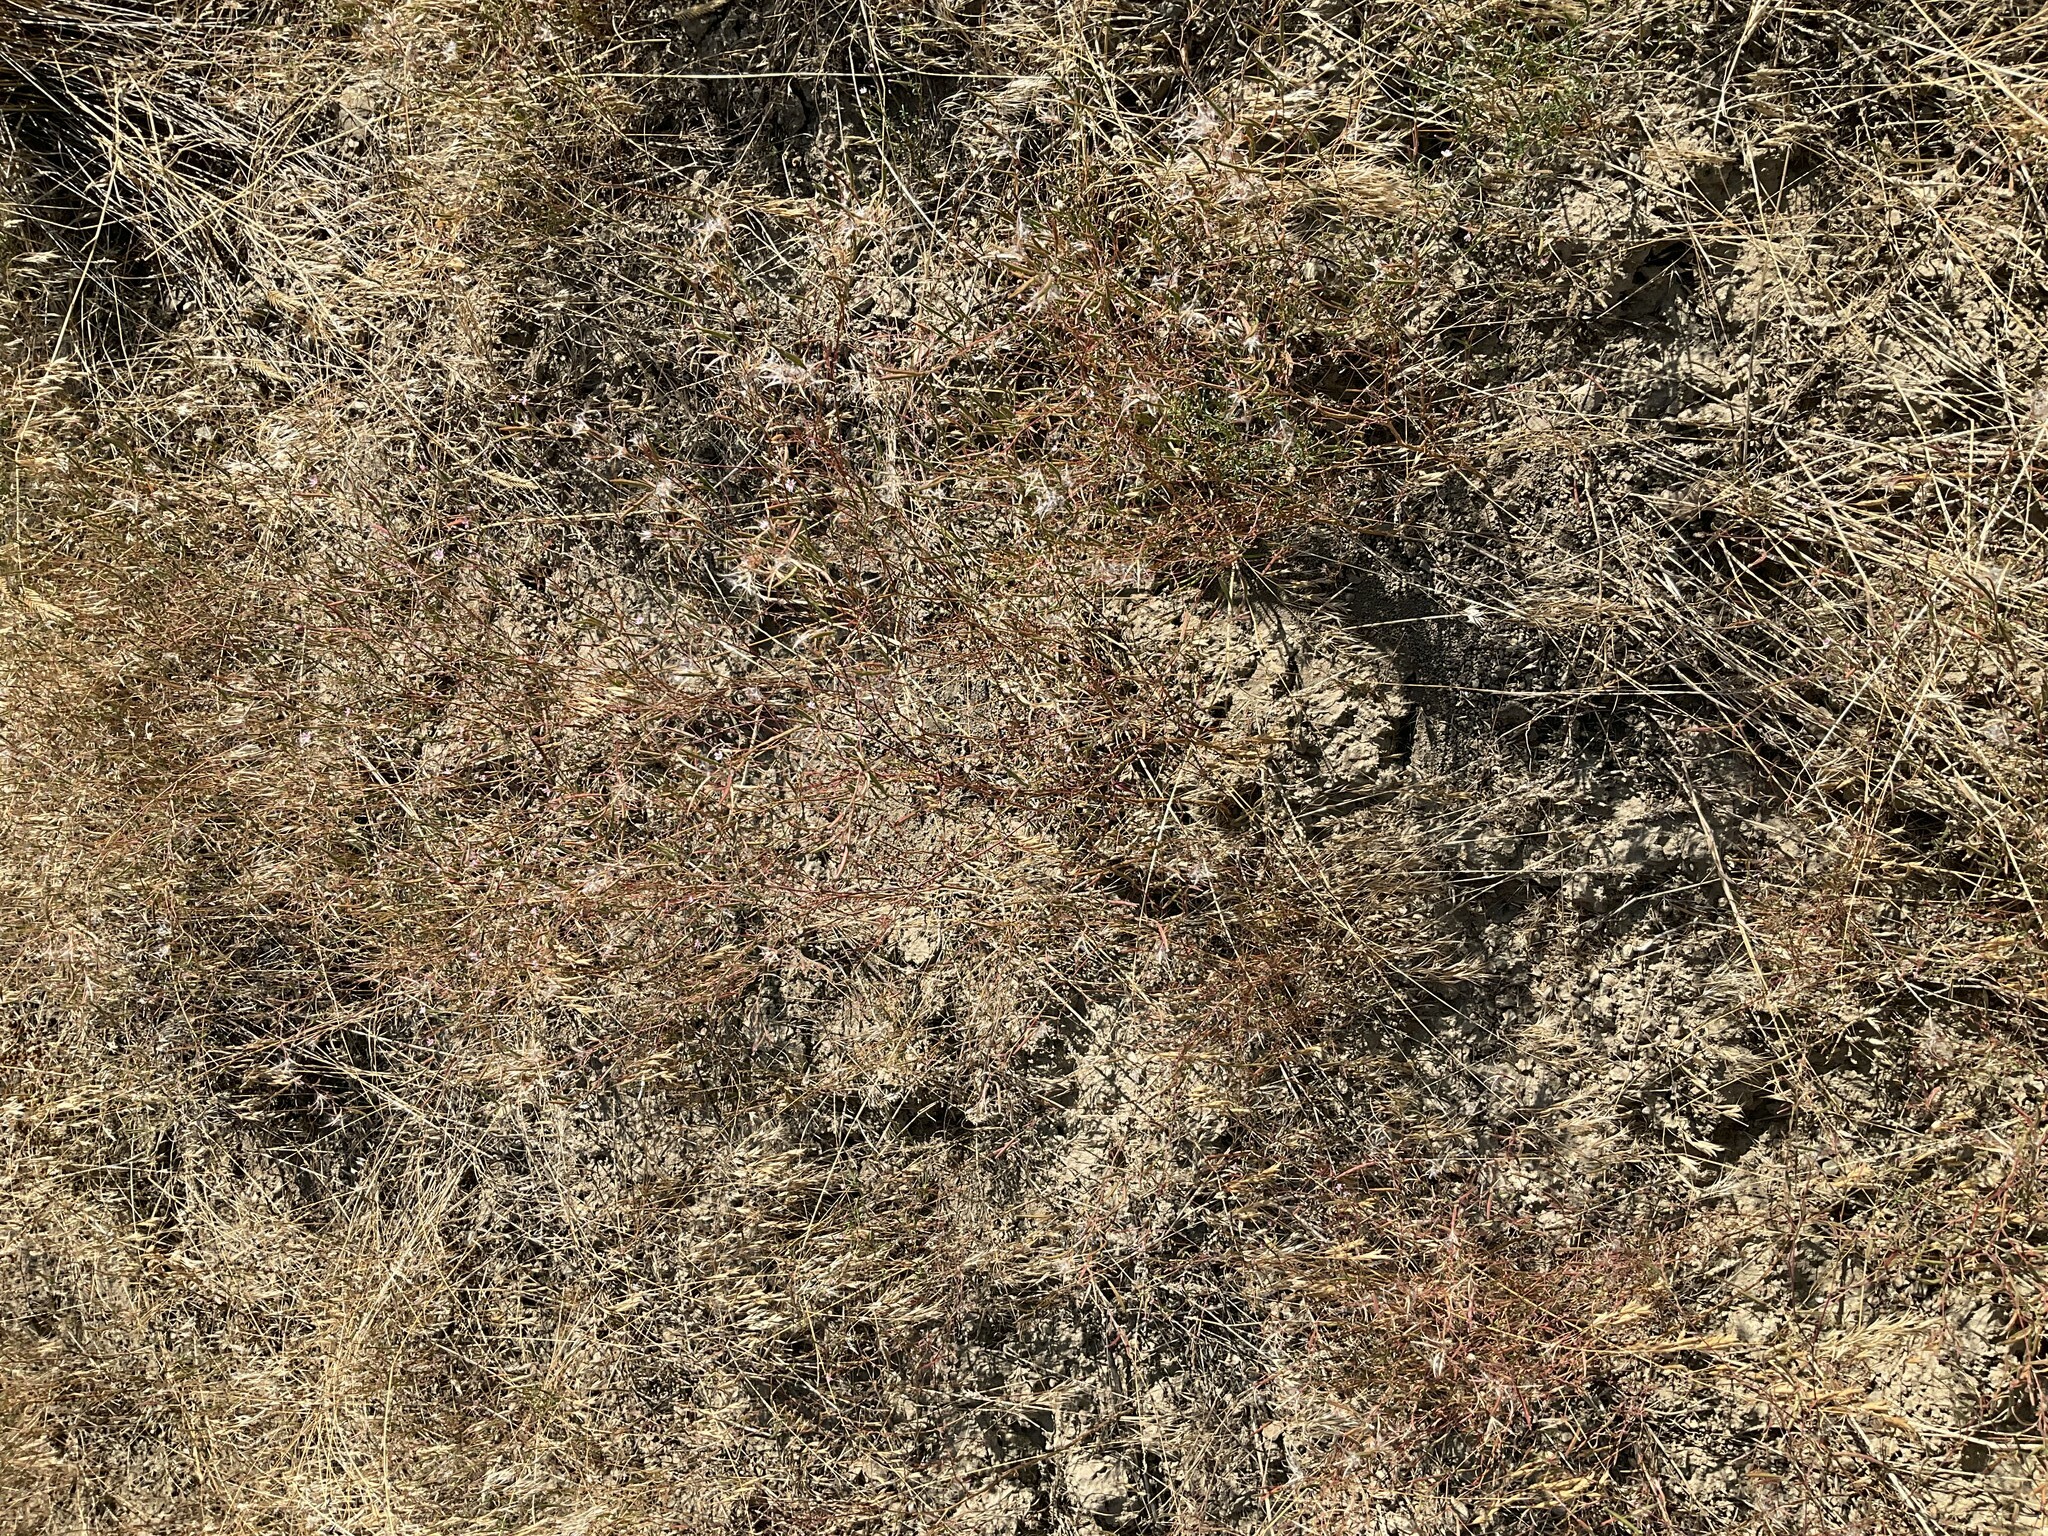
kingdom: Plantae
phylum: Tracheophyta
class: Magnoliopsida
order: Myrtales
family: Onagraceae
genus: Epilobium
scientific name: Epilobium brachycarpum
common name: Annual willowherb
